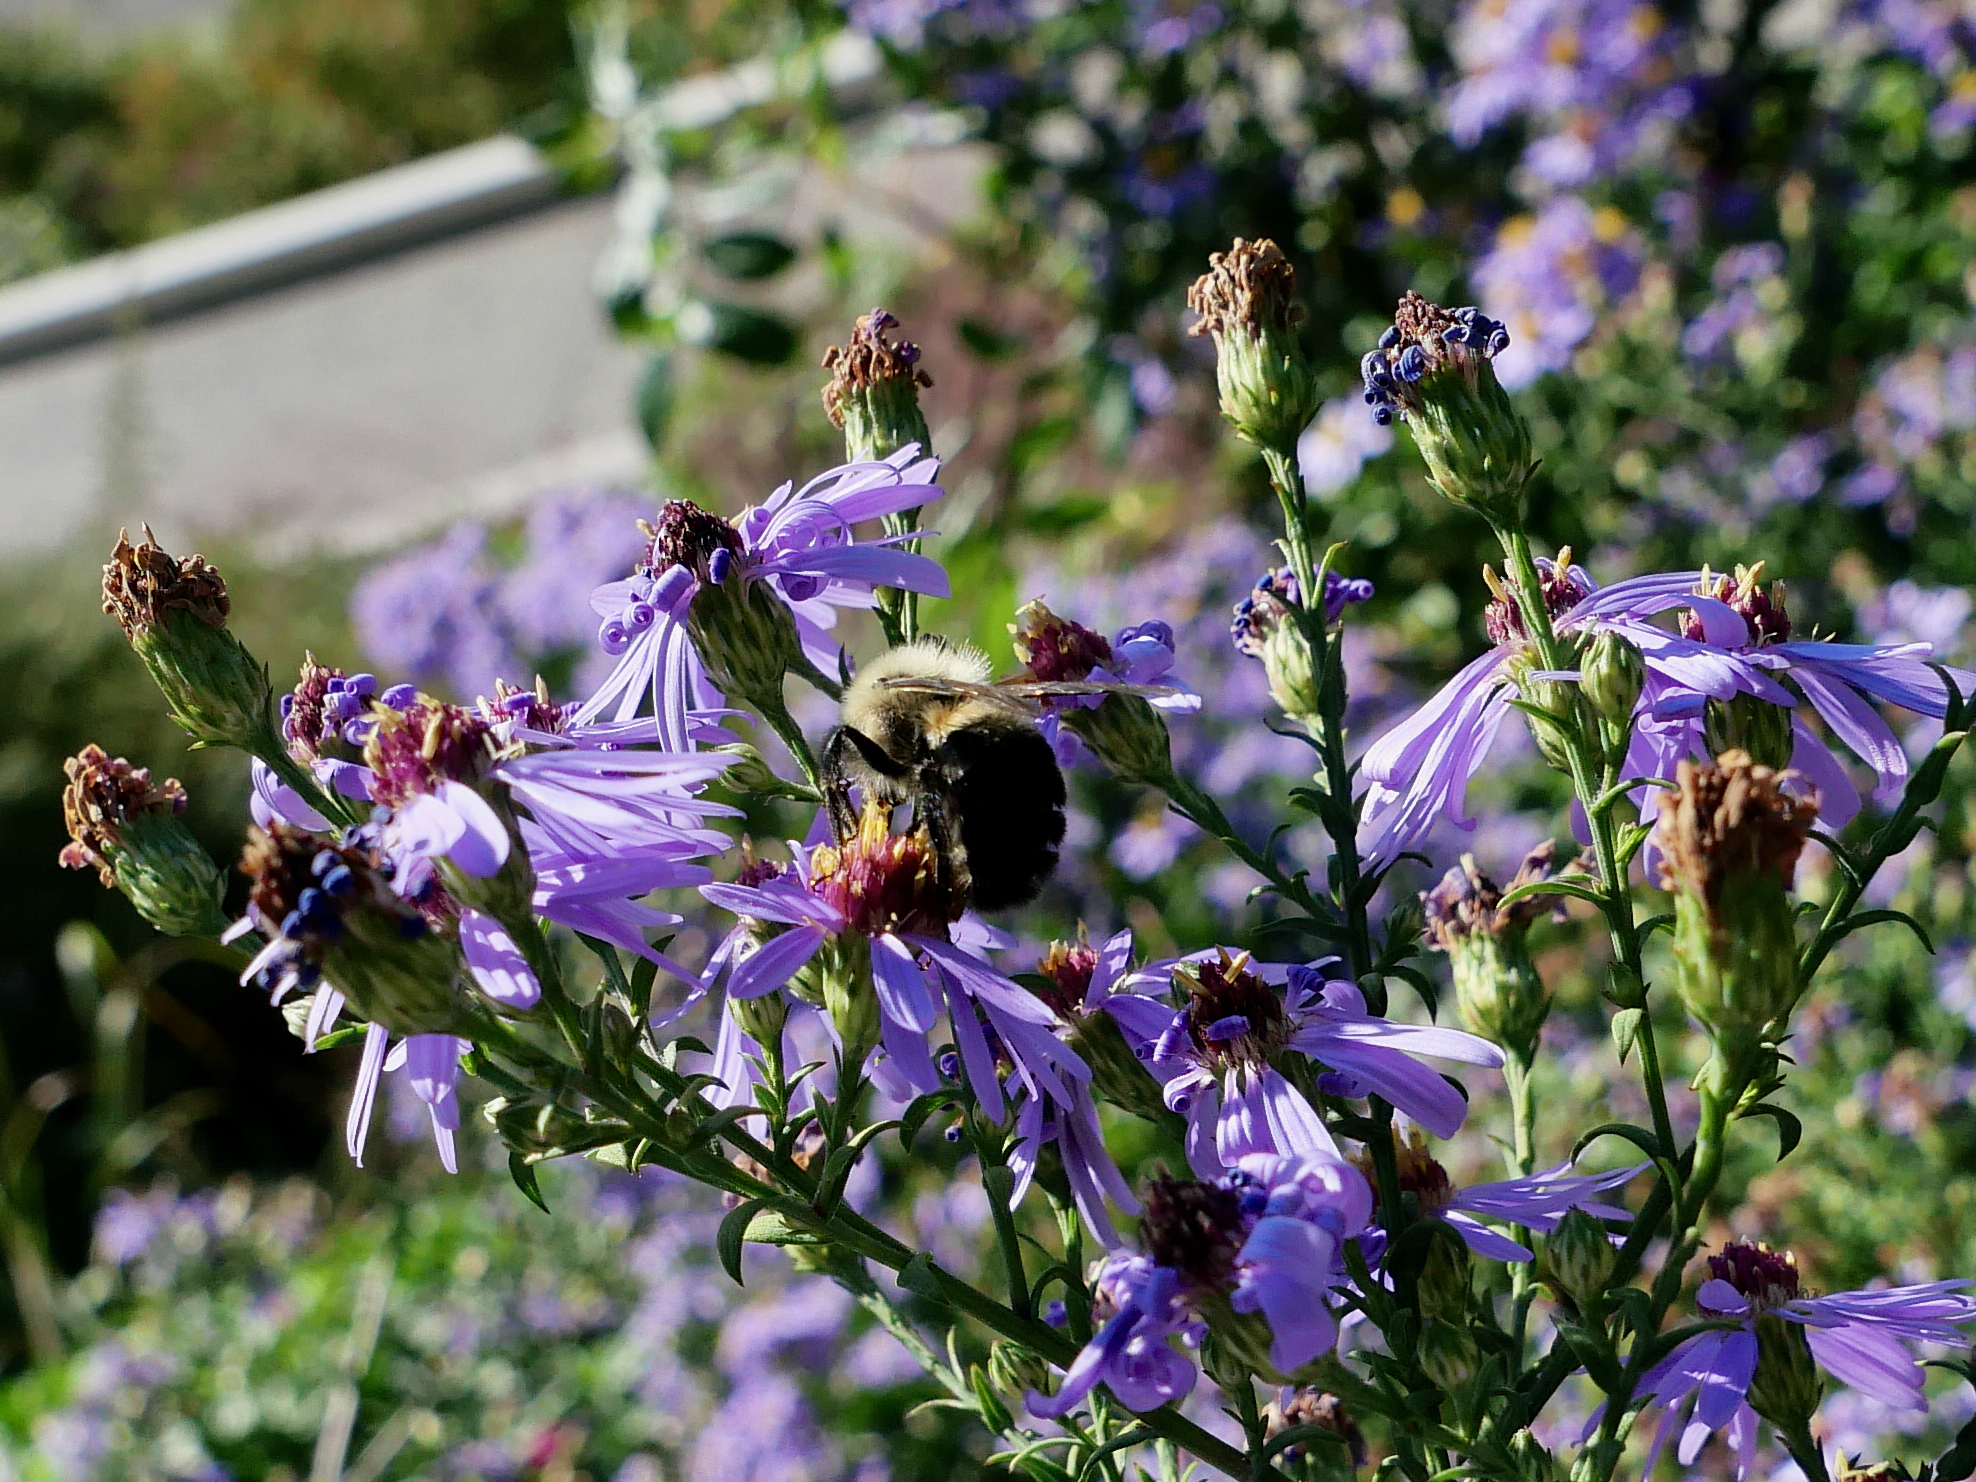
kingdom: Animalia
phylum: Arthropoda
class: Insecta
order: Hymenoptera
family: Apidae
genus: Bombus
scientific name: Bombus impatiens
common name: Common eastern bumble bee
